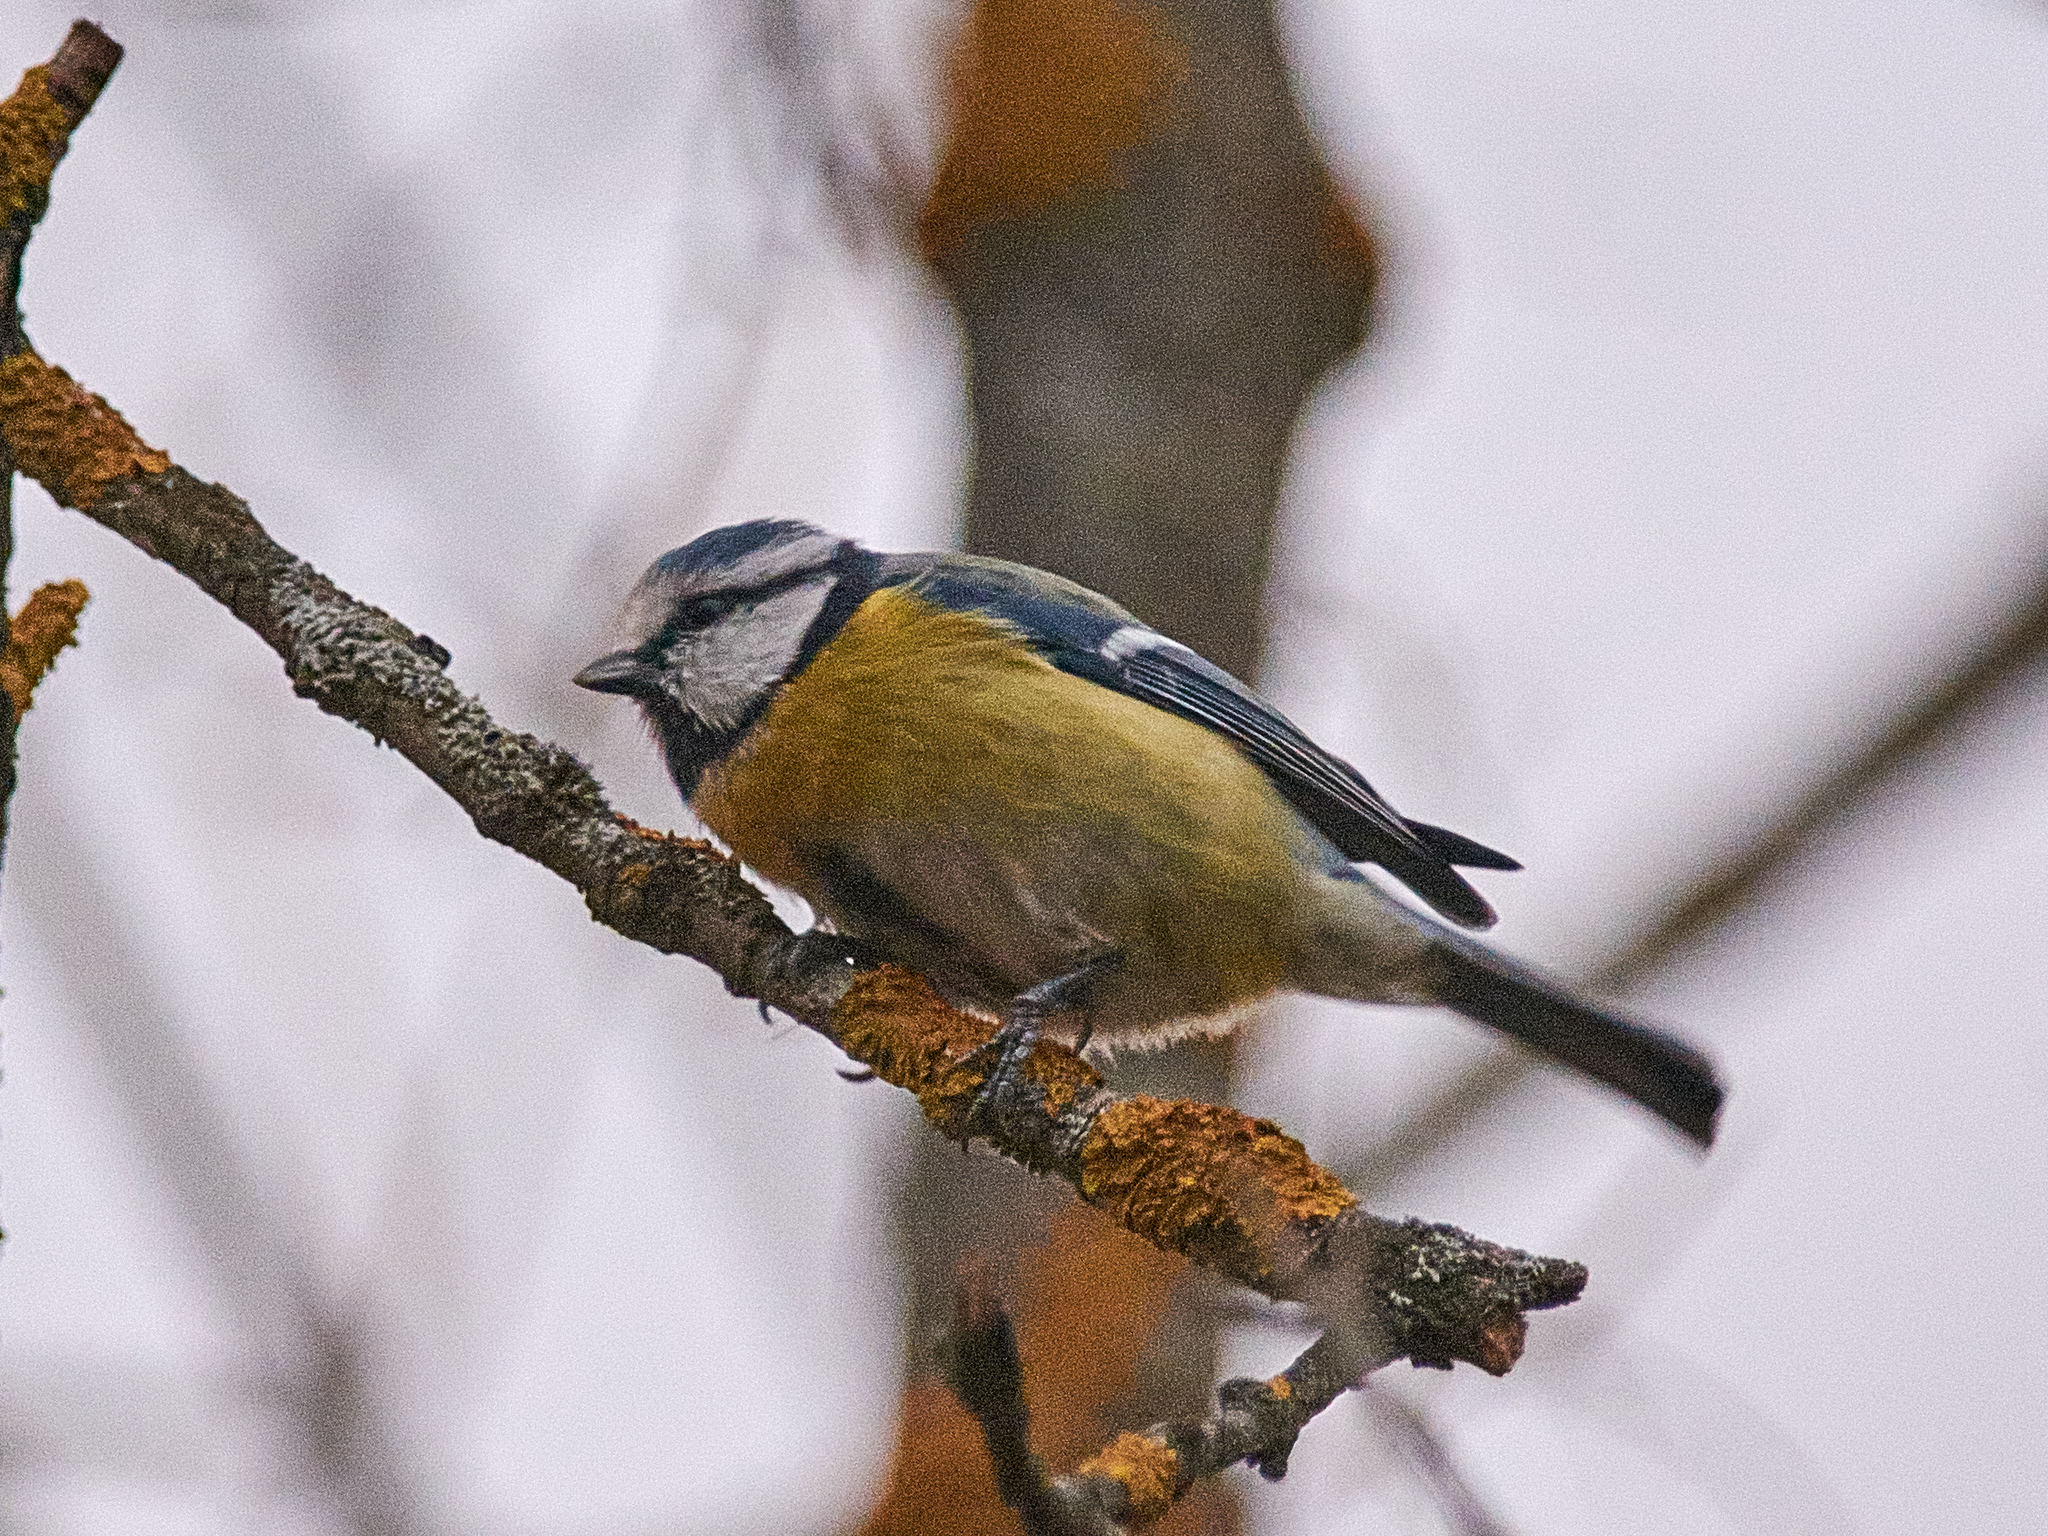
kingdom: Animalia
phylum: Chordata
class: Aves
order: Passeriformes
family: Paridae
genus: Cyanistes
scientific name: Cyanistes caeruleus
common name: Eurasian blue tit
